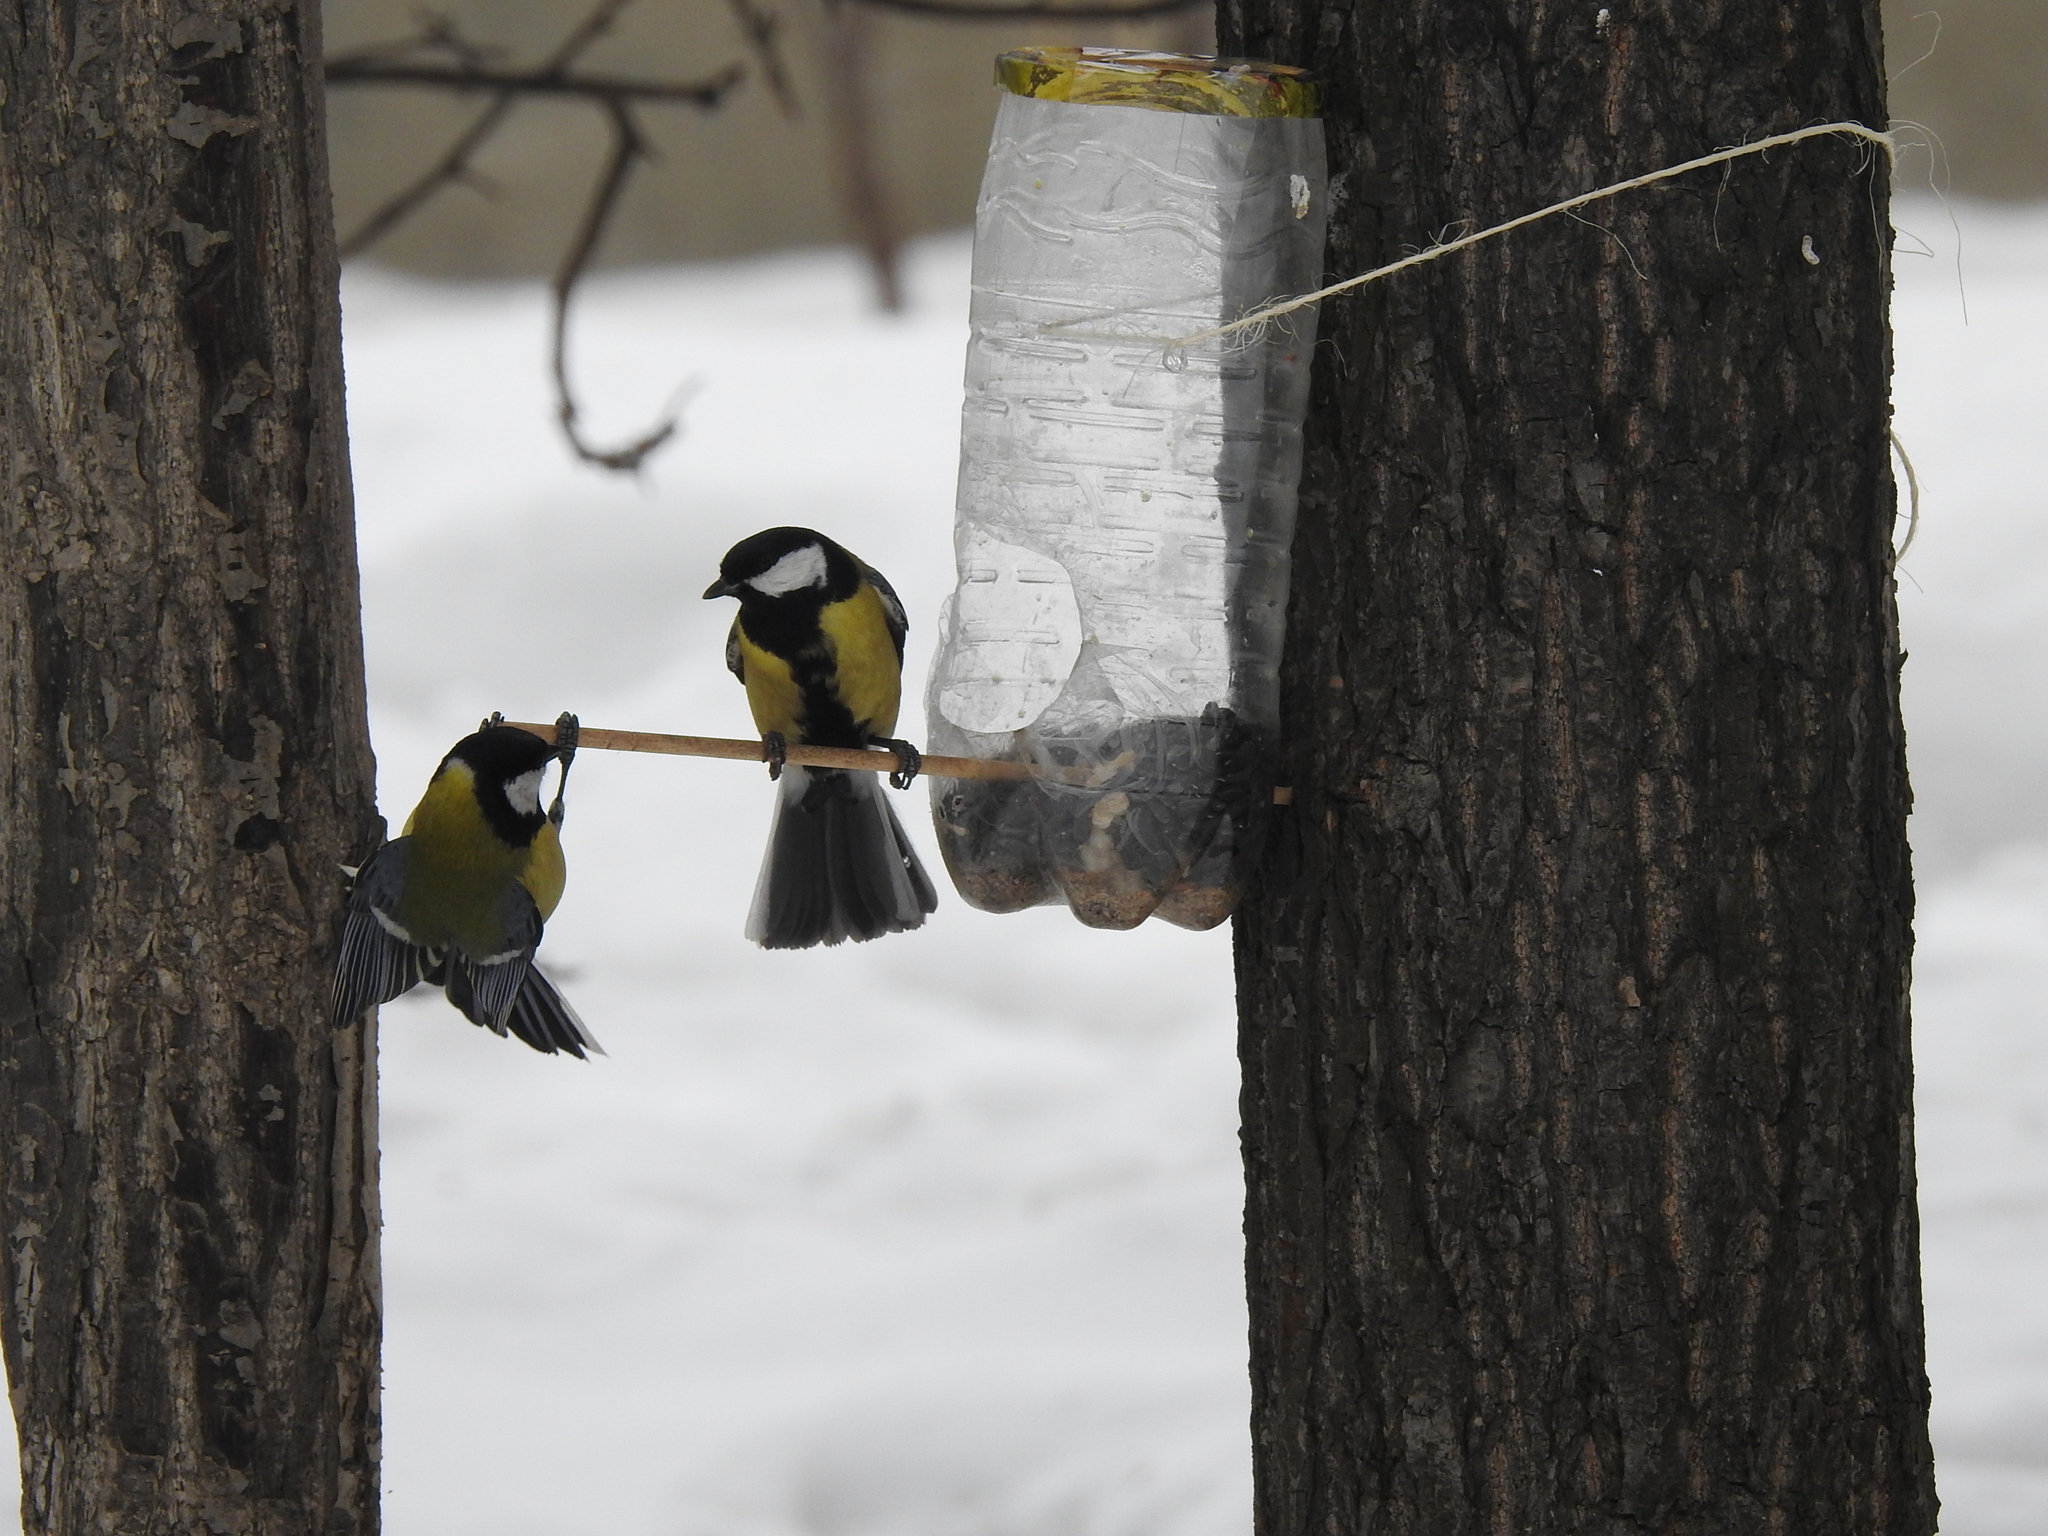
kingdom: Animalia
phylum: Chordata
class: Aves
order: Passeriformes
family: Paridae
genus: Parus
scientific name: Parus major
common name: Great tit
